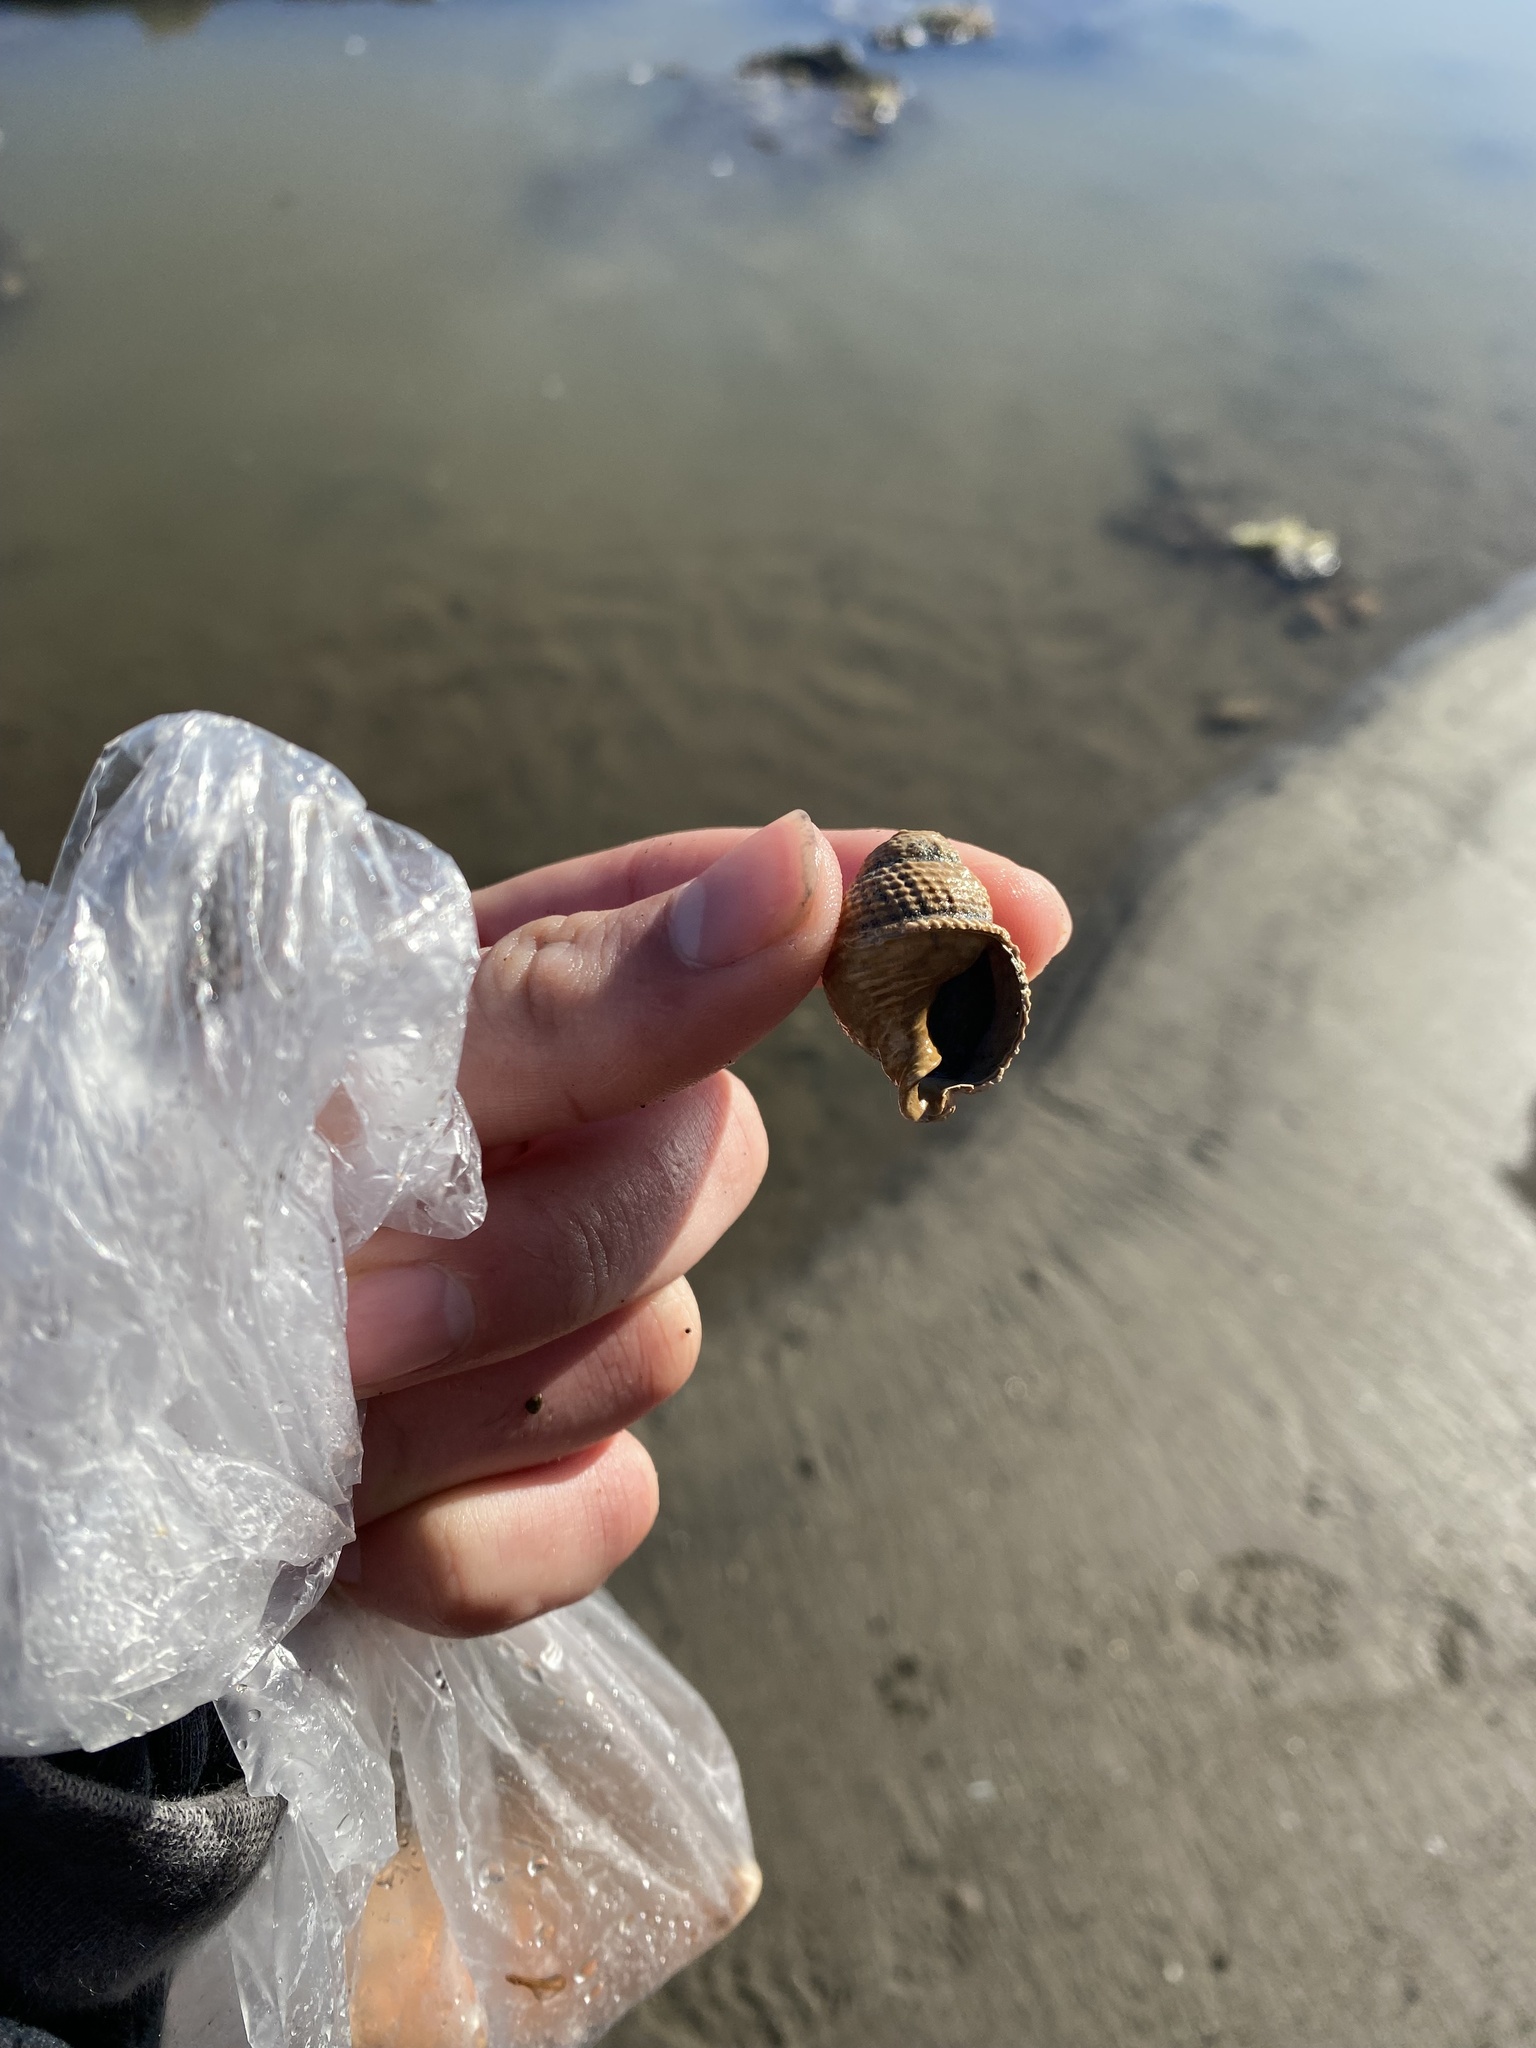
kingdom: Animalia
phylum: Mollusca
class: Gastropoda
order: Neogastropoda
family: Nassariidae
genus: Caesia
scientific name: Caesia perpinguis
